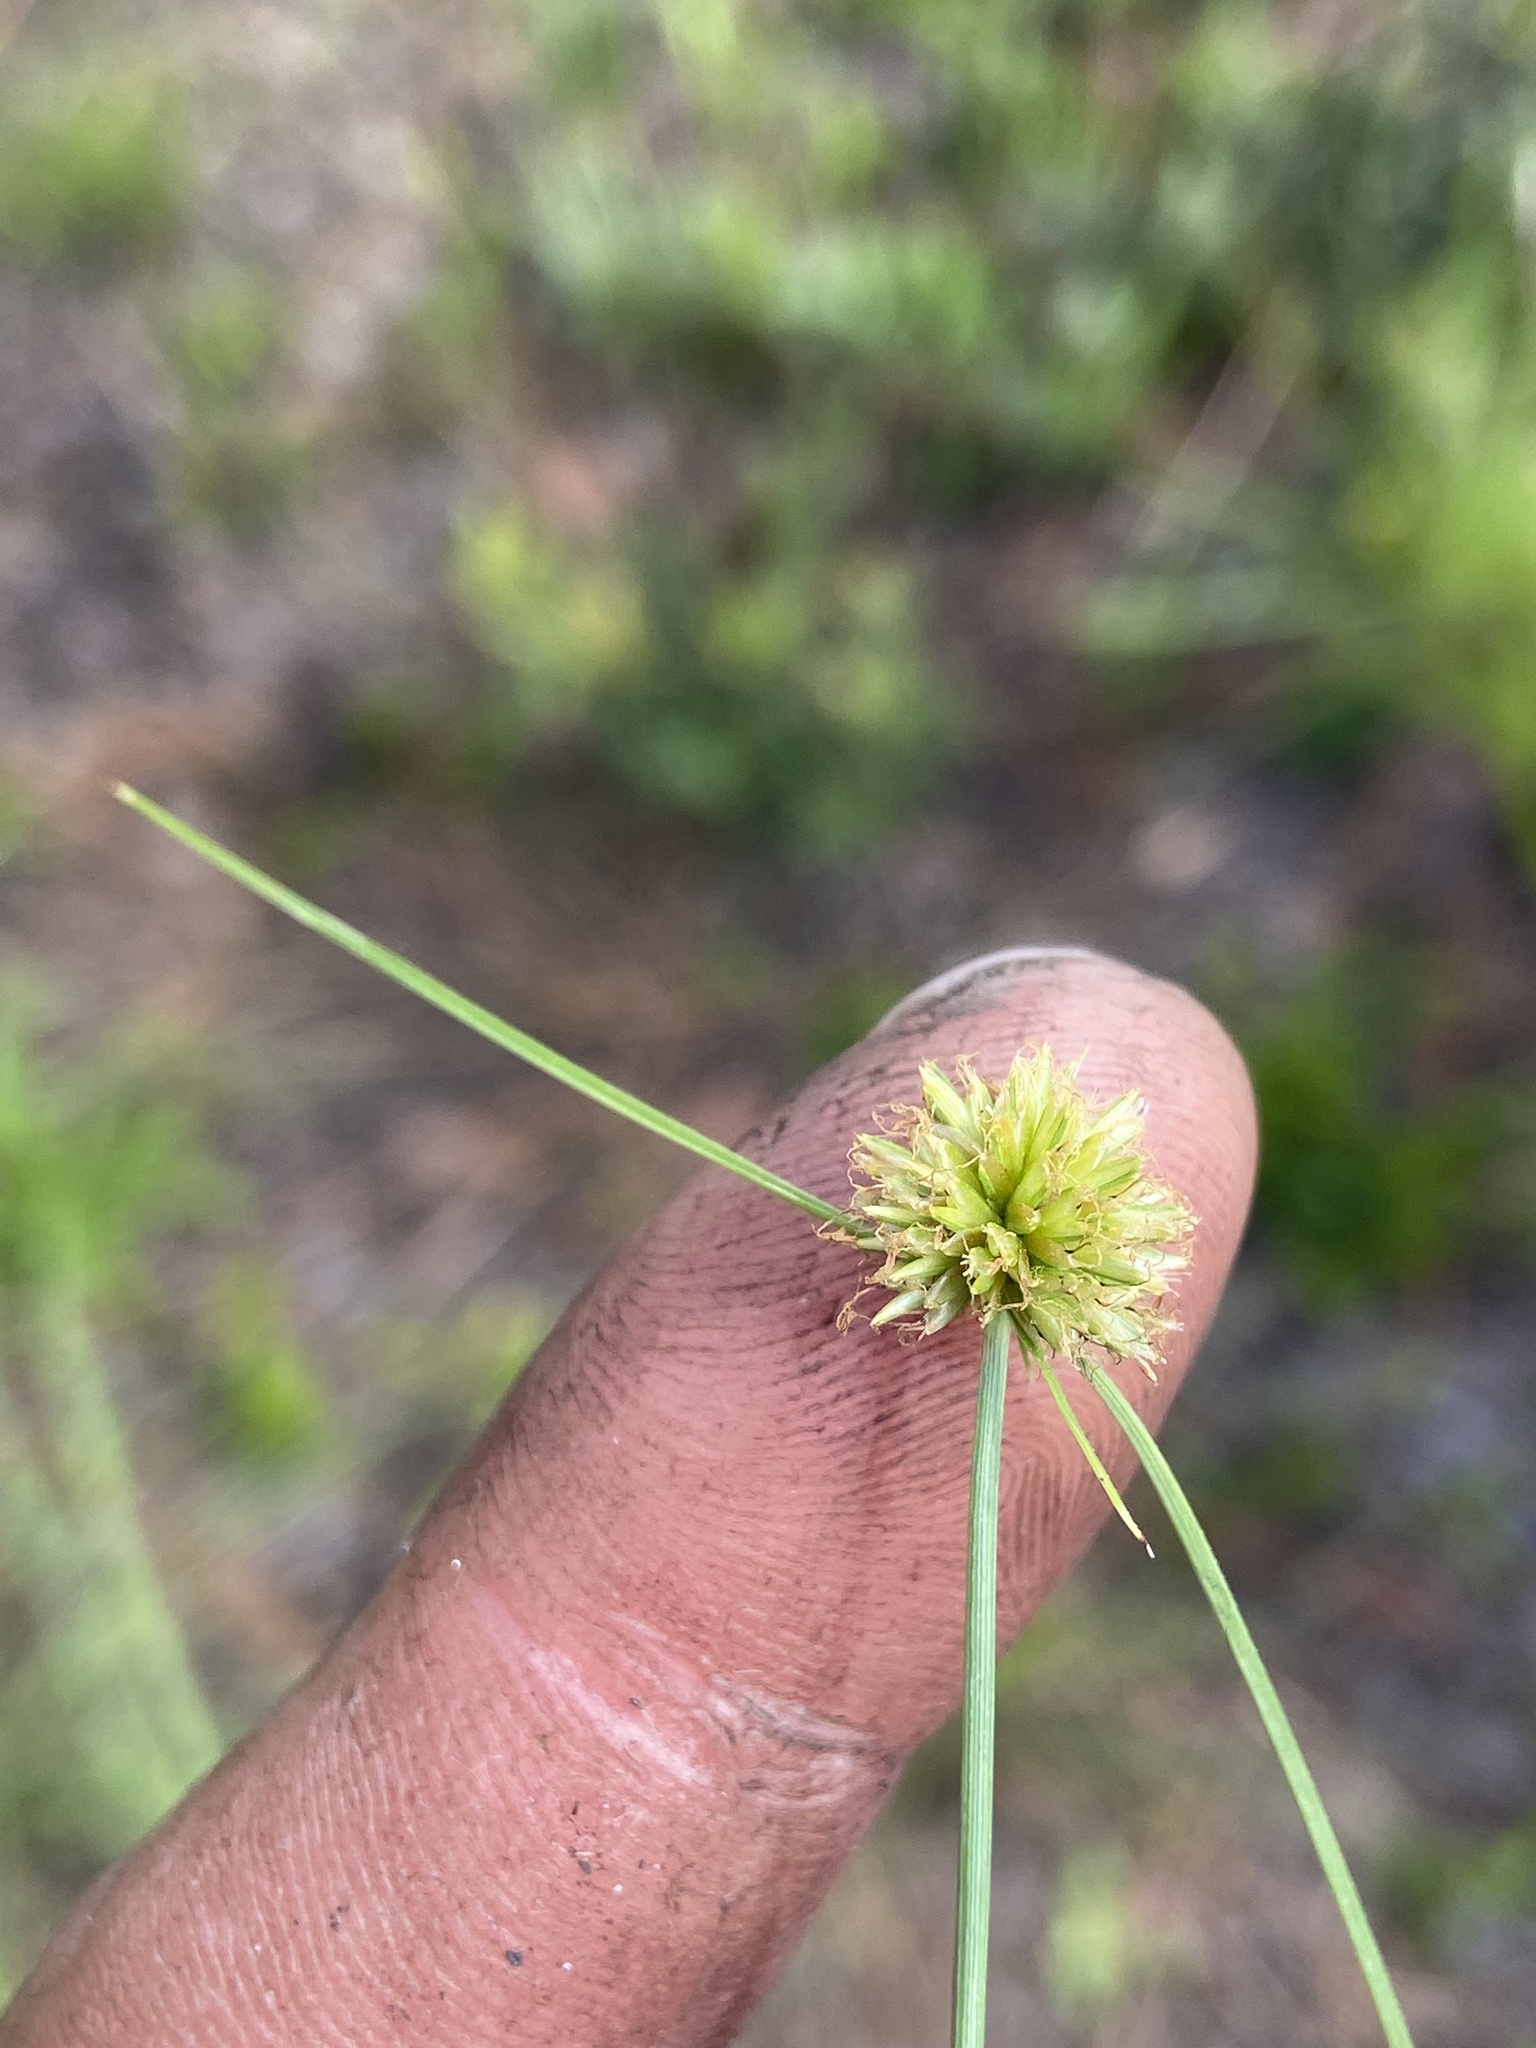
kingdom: Plantae
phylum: Tracheophyta
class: Liliopsida
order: Poales
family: Cyperaceae
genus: Cyperus
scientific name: Cyperus filiculmis
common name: Slender sand sedge
